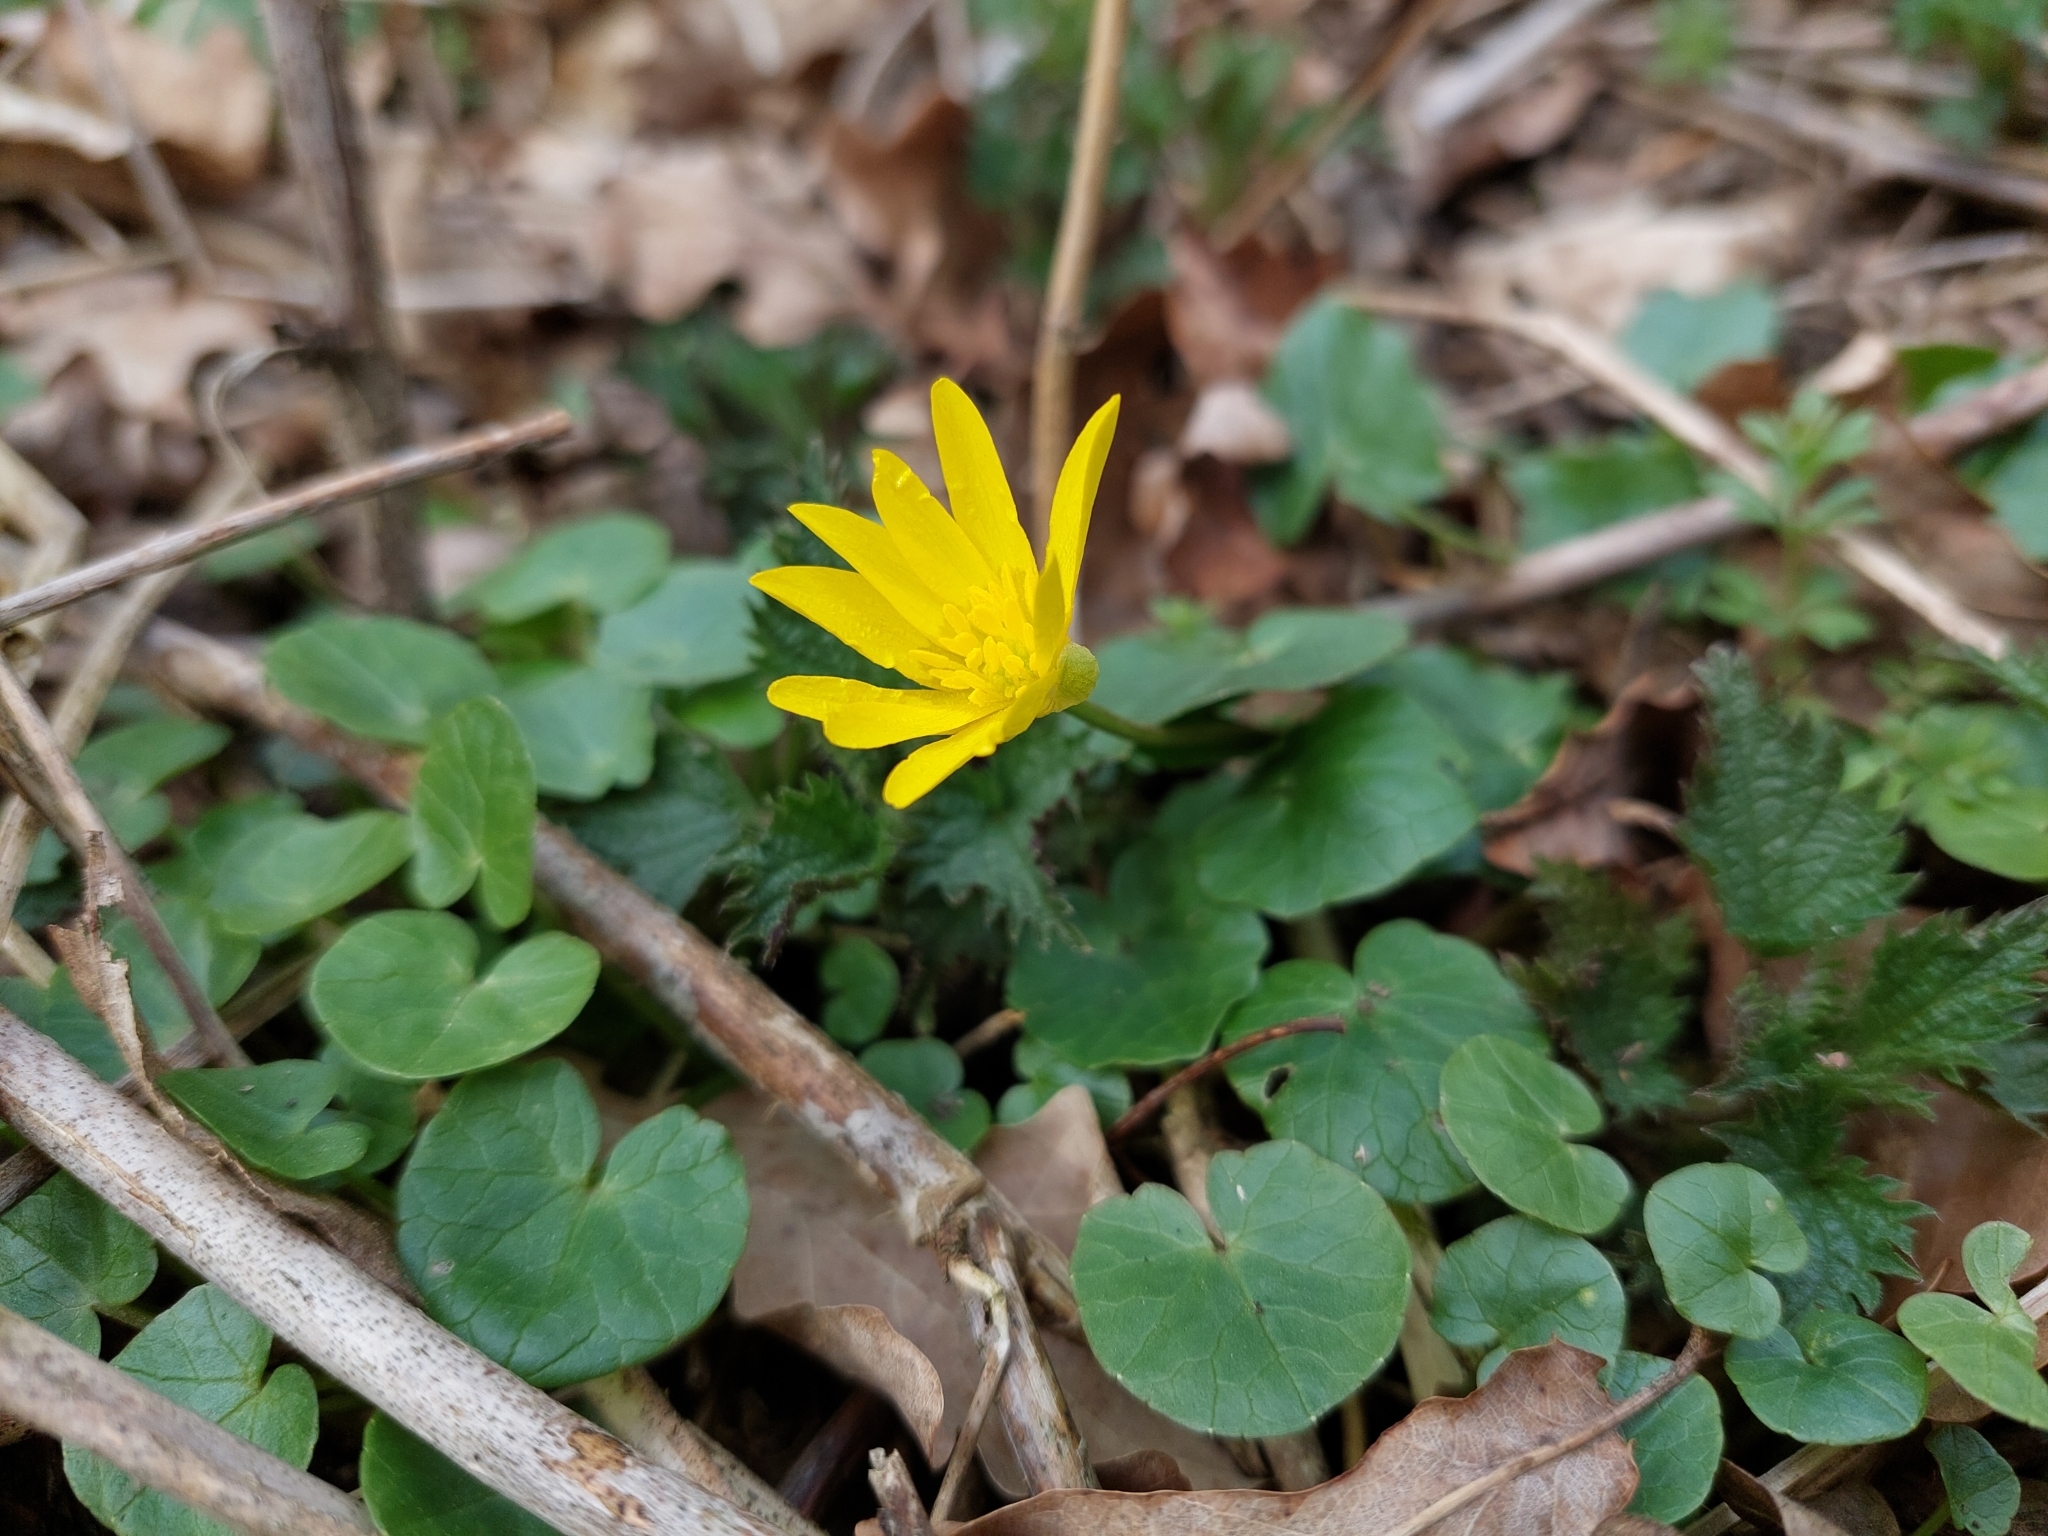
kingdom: Plantae
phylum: Tracheophyta
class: Magnoliopsida
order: Ranunculales
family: Ranunculaceae
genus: Ficaria
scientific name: Ficaria verna
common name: Lesser celandine
